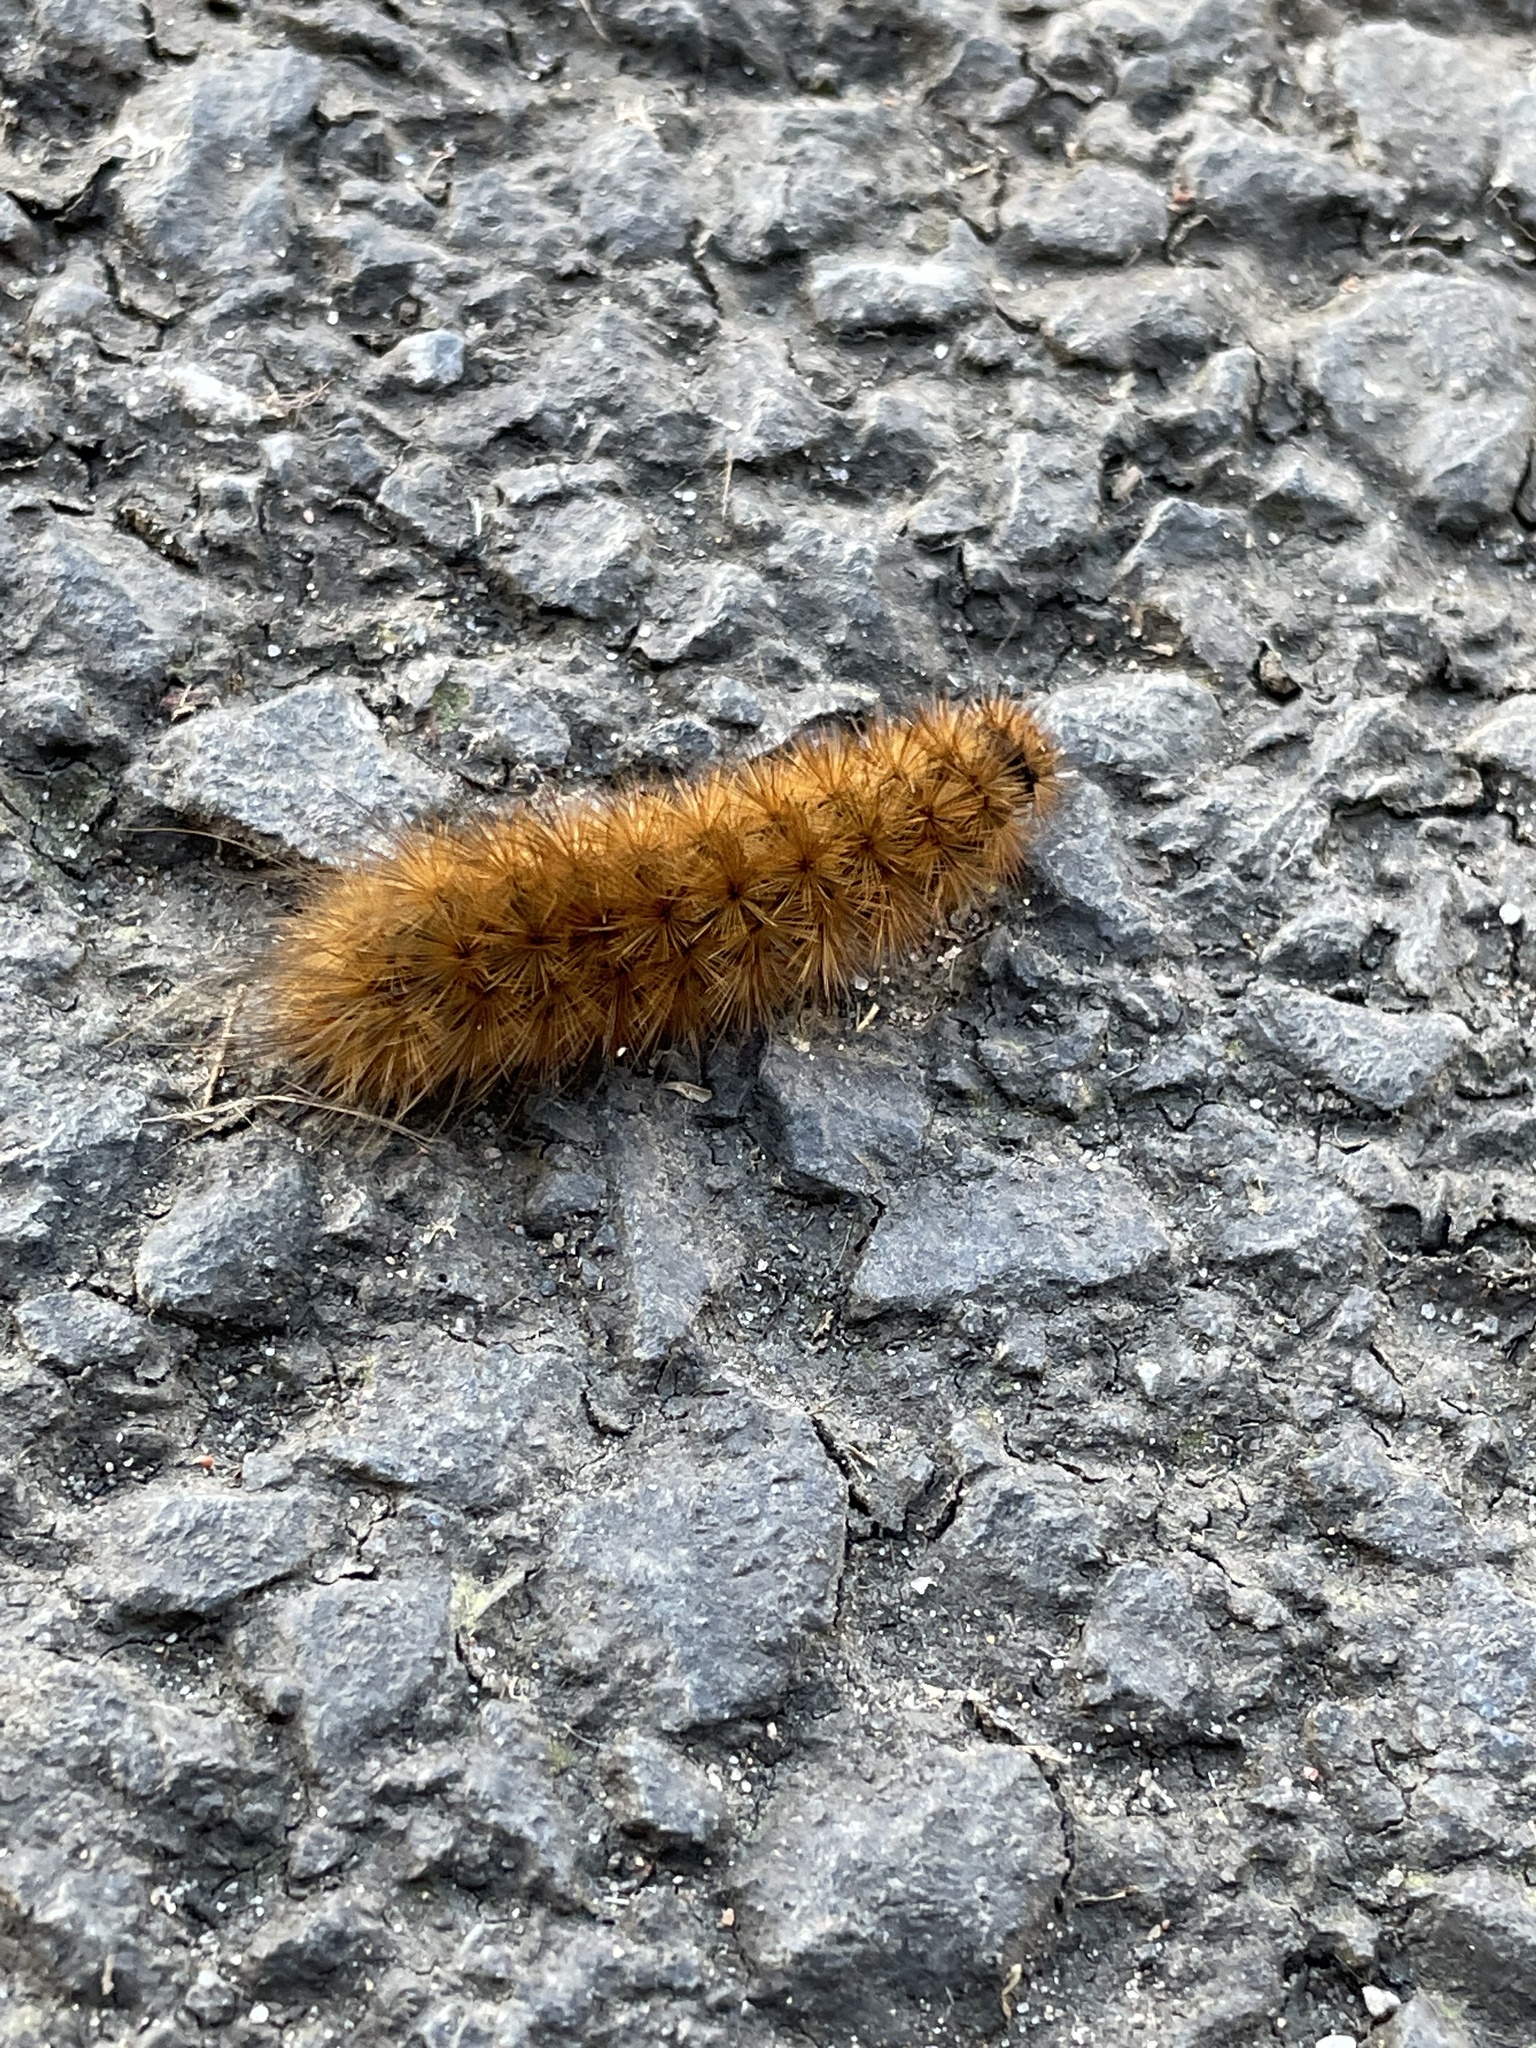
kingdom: Animalia
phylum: Arthropoda
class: Insecta
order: Lepidoptera
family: Erebidae
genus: Phragmatobia
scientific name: Phragmatobia fuliginosa
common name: Ruby tiger
